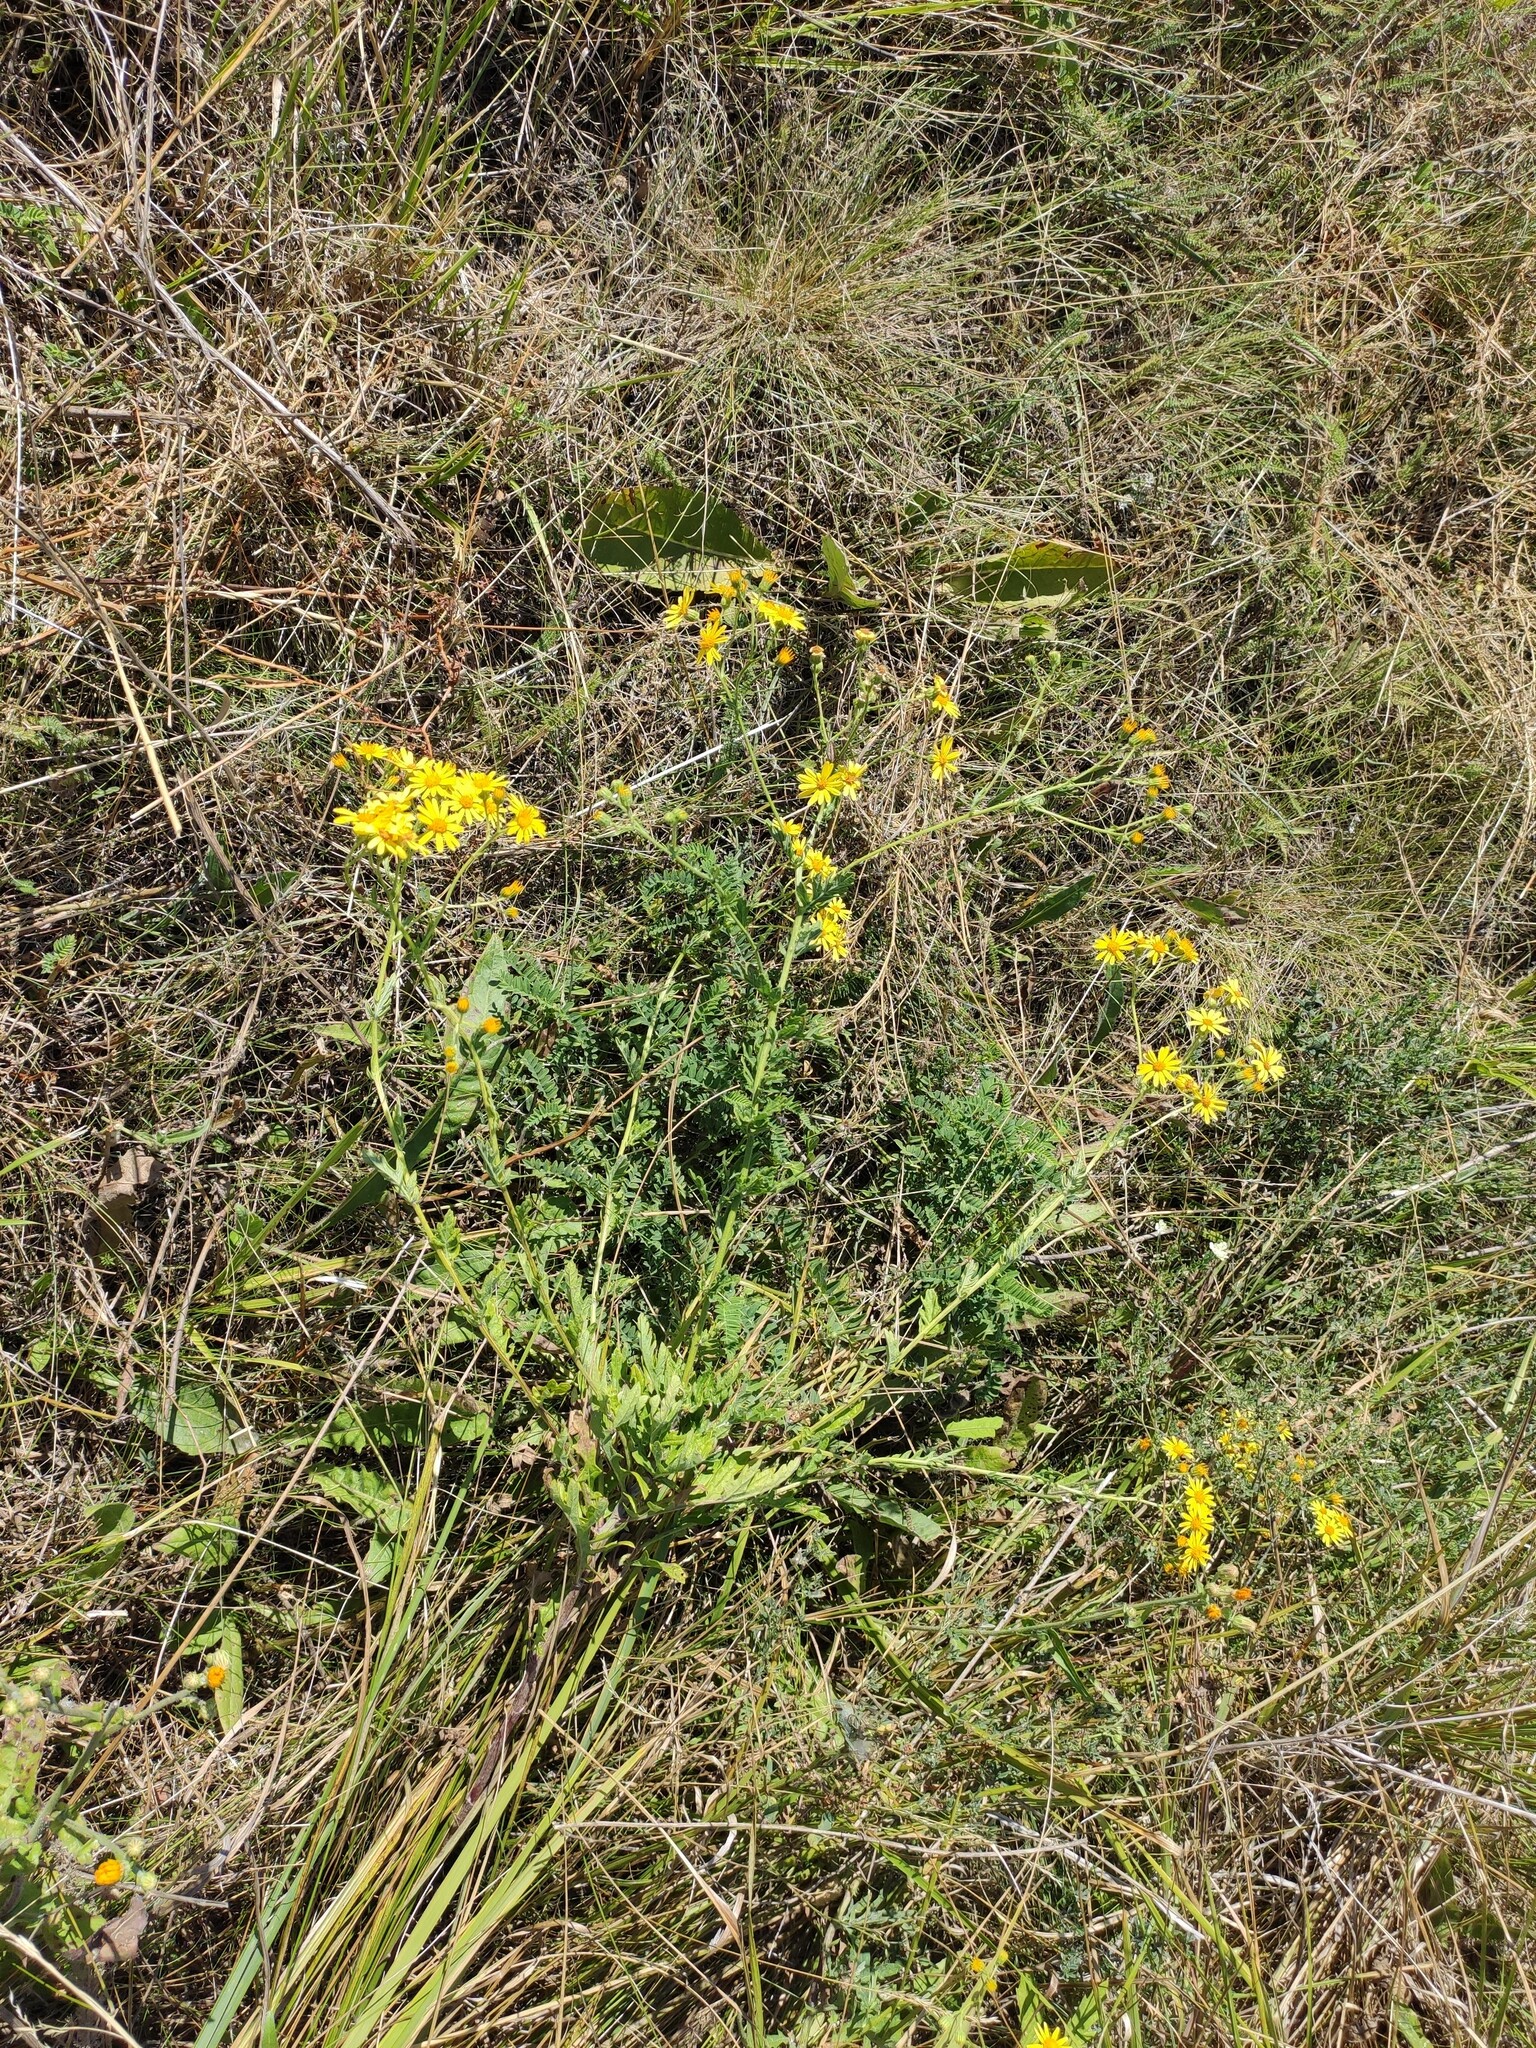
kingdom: Plantae
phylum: Tracheophyta
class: Magnoliopsida
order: Asterales
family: Asteraceae
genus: Jacobaea
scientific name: Jacobaea erucifolia
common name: Hoary ragwort
